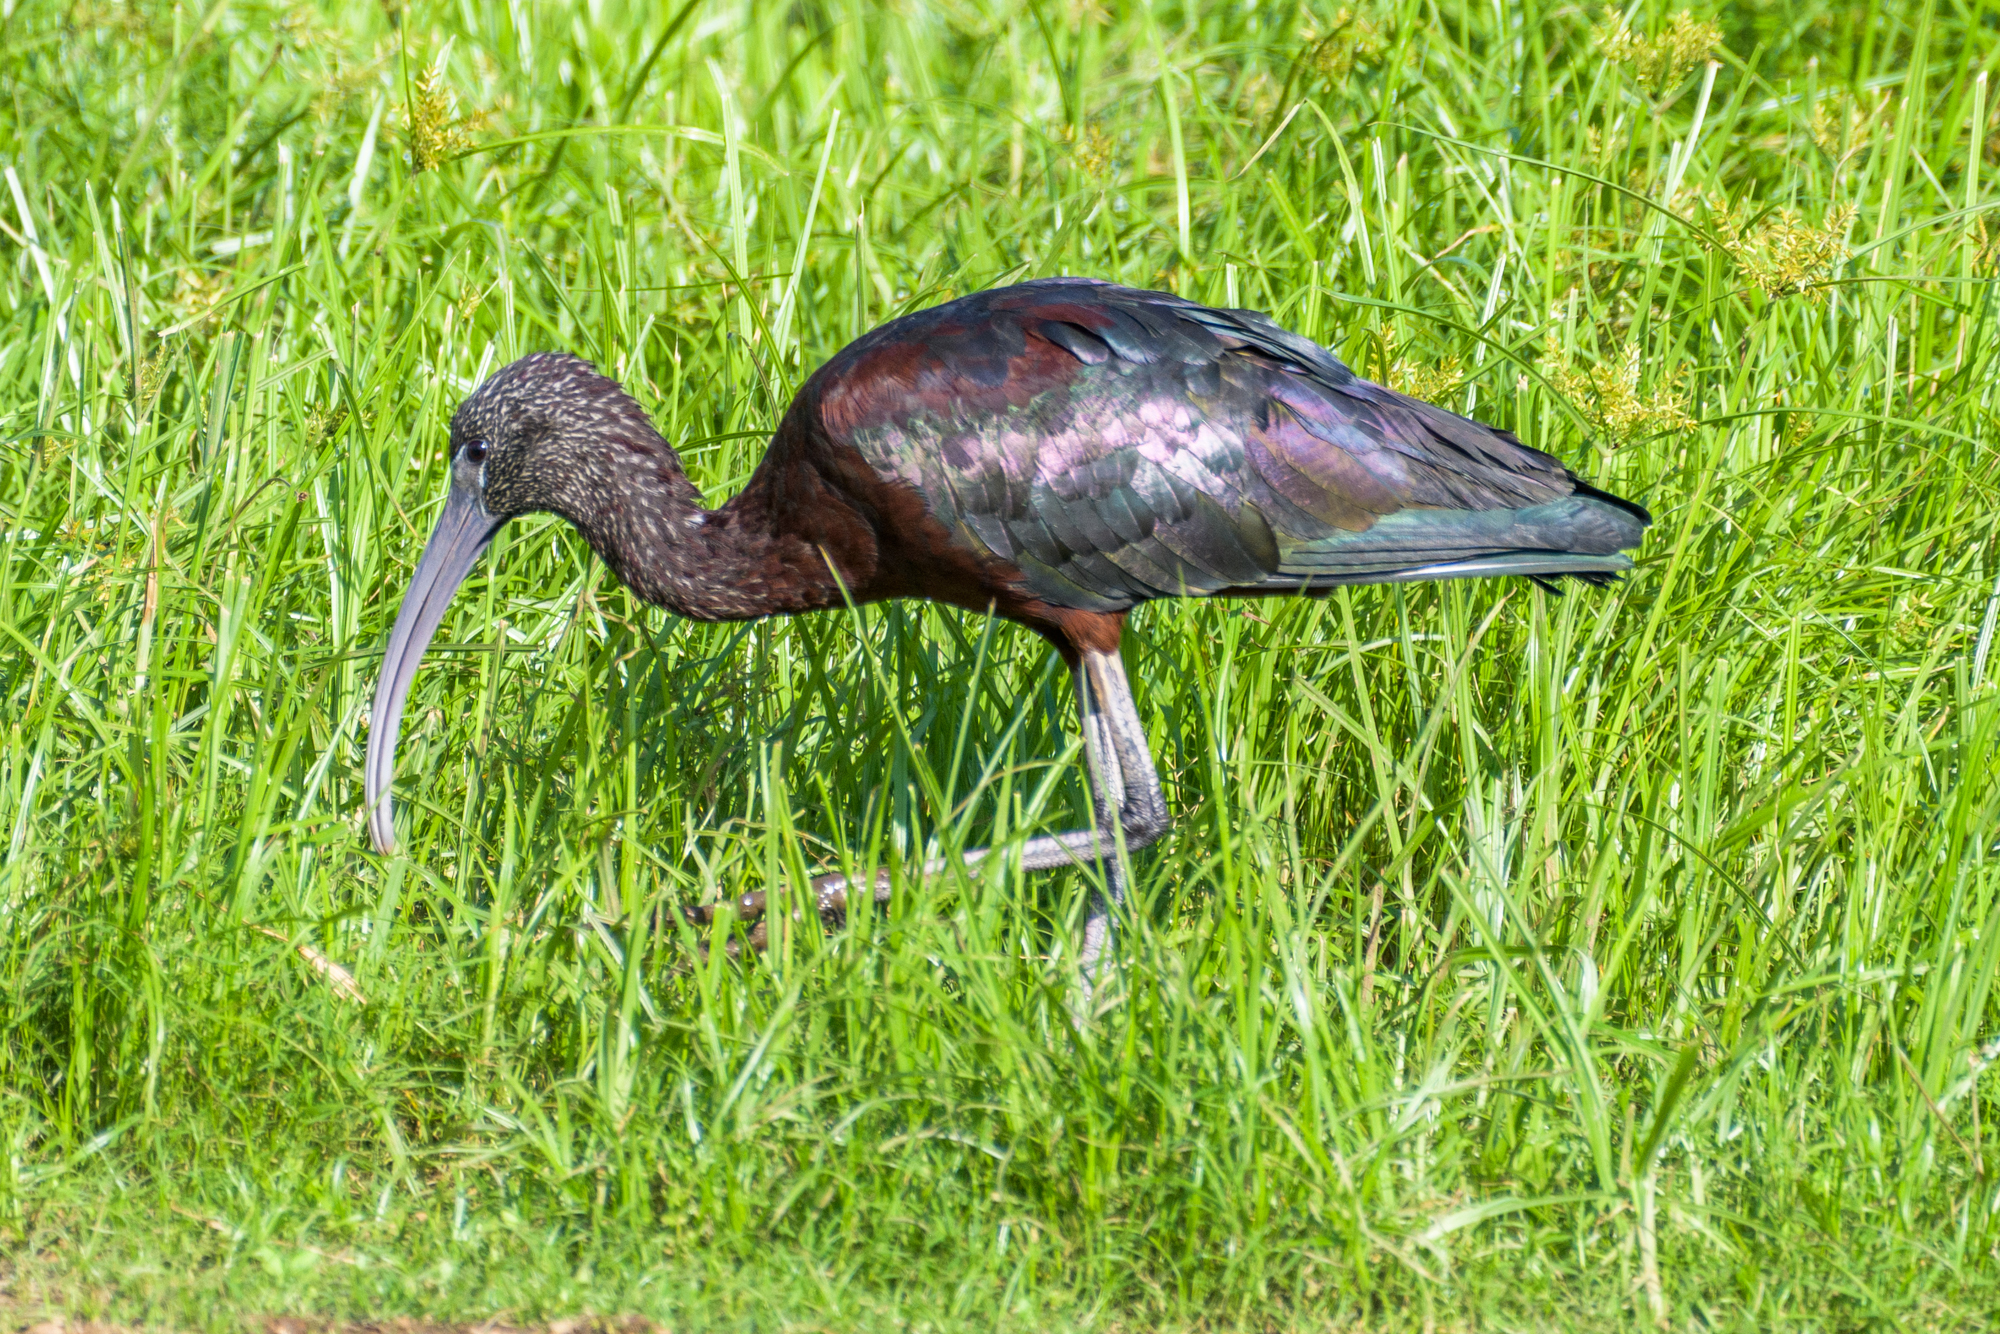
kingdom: Animalia
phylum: Chordata
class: Aves
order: Pelecaniformes
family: Threskiornithidae
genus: Plegadis
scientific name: Plegadis falcinellus
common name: Glossy ibis
